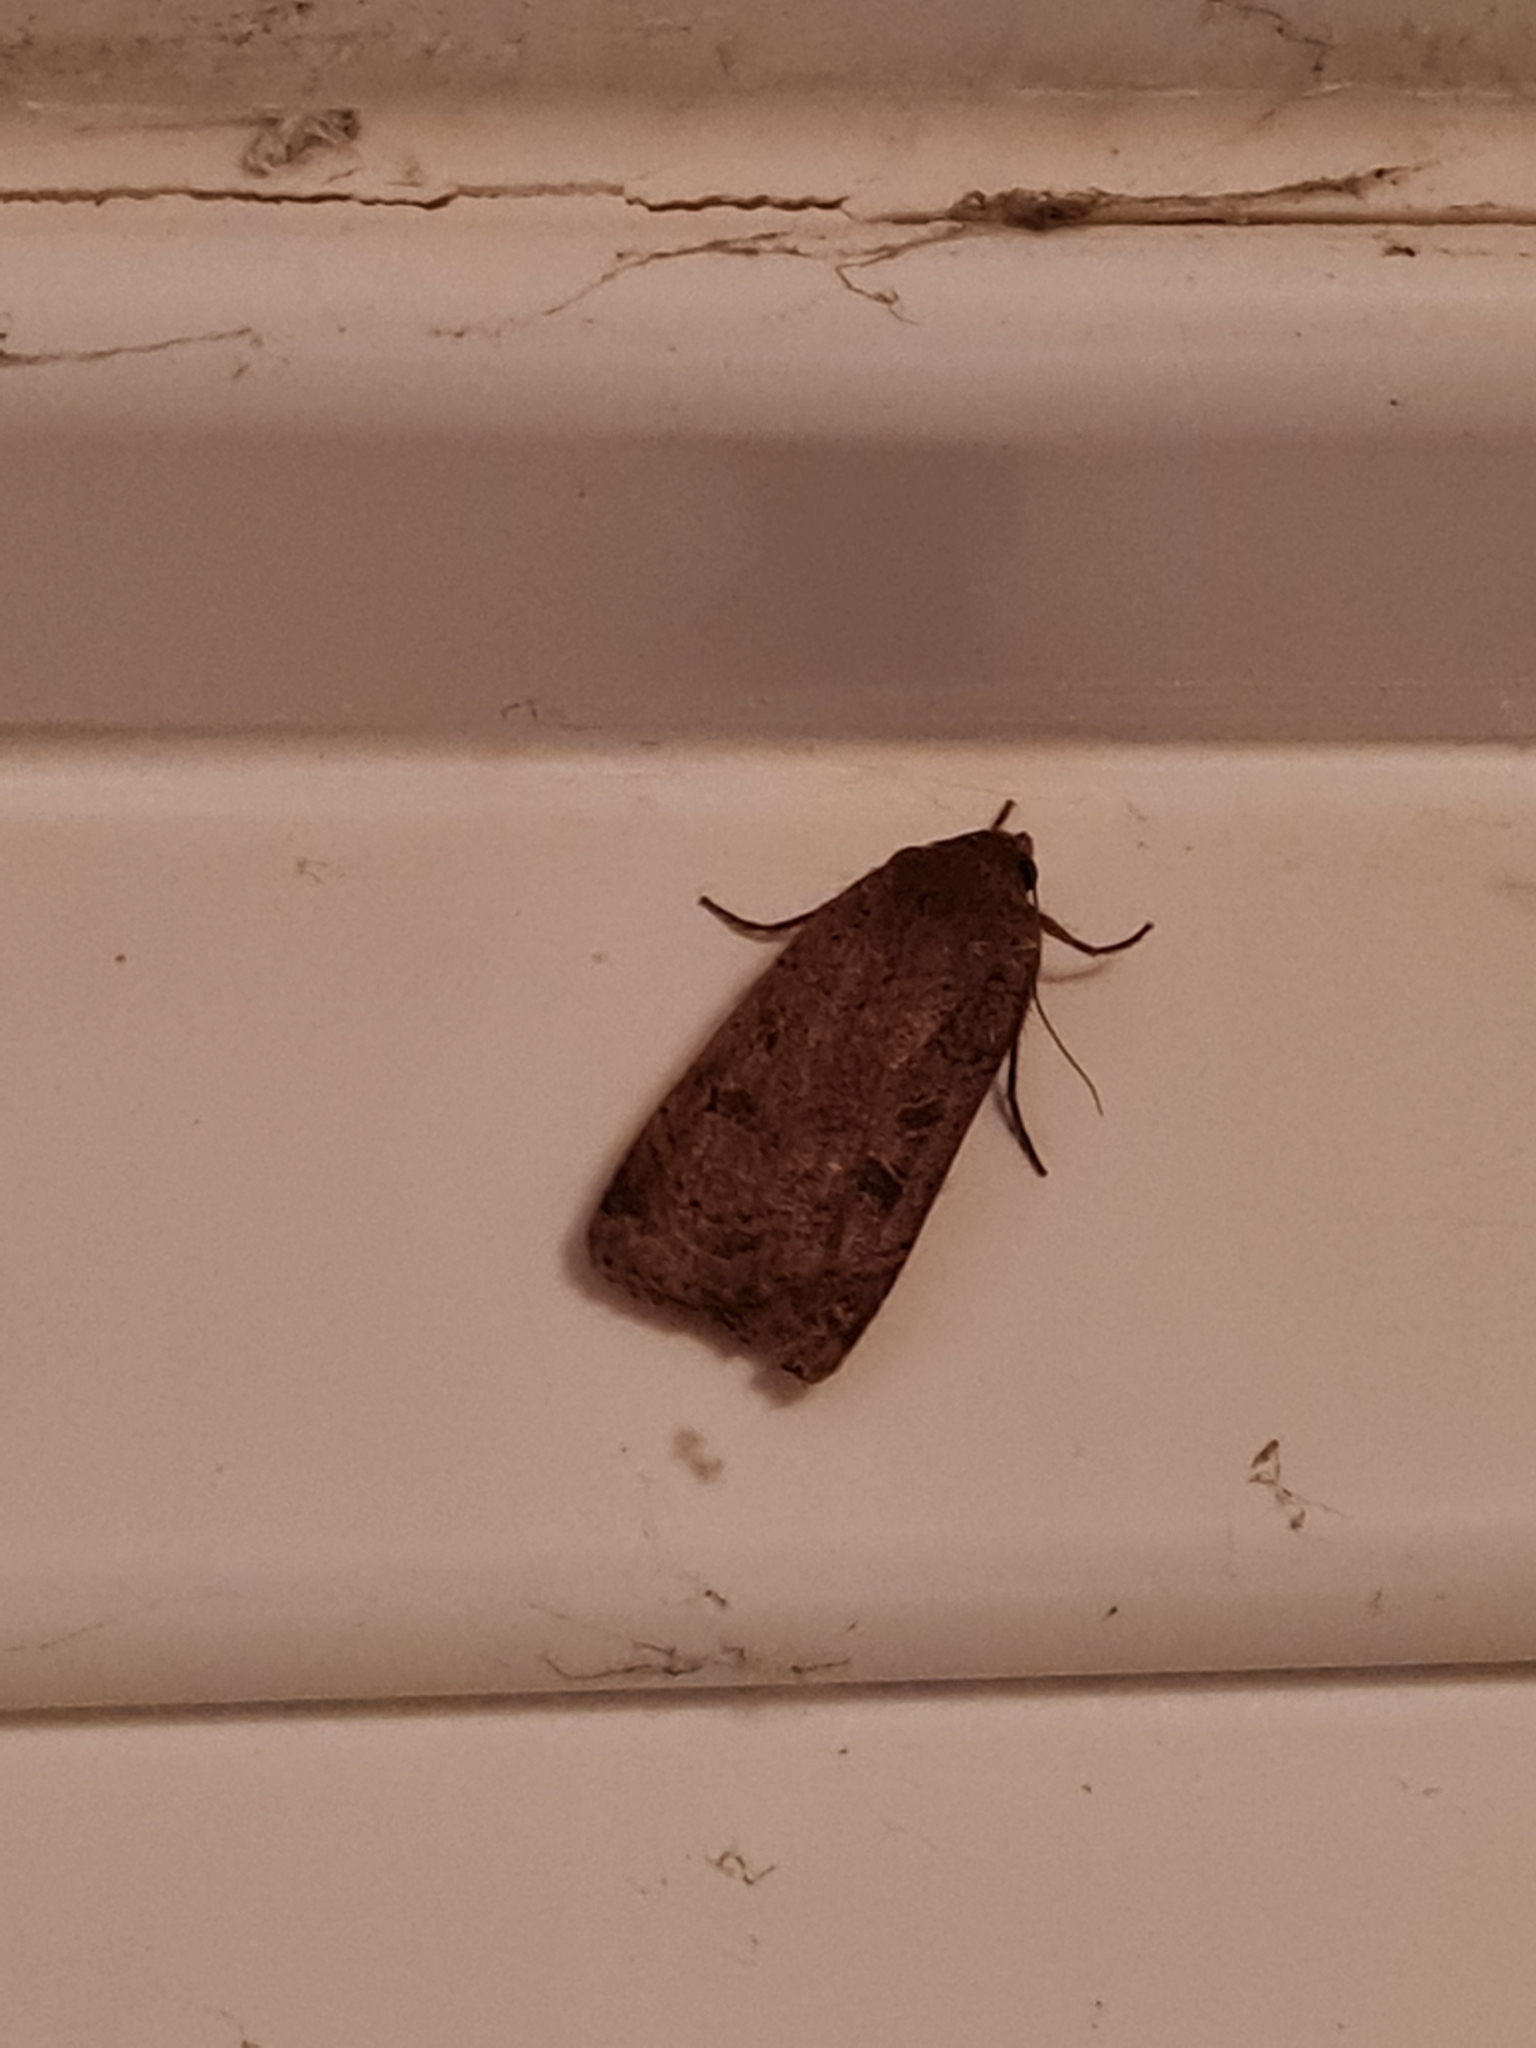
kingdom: Animalia
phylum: Arthropoda
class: Insecta
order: Lepidoptera
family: Noctuidae
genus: Noctua
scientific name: Noctua comes
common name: Lesser yellow underwing
